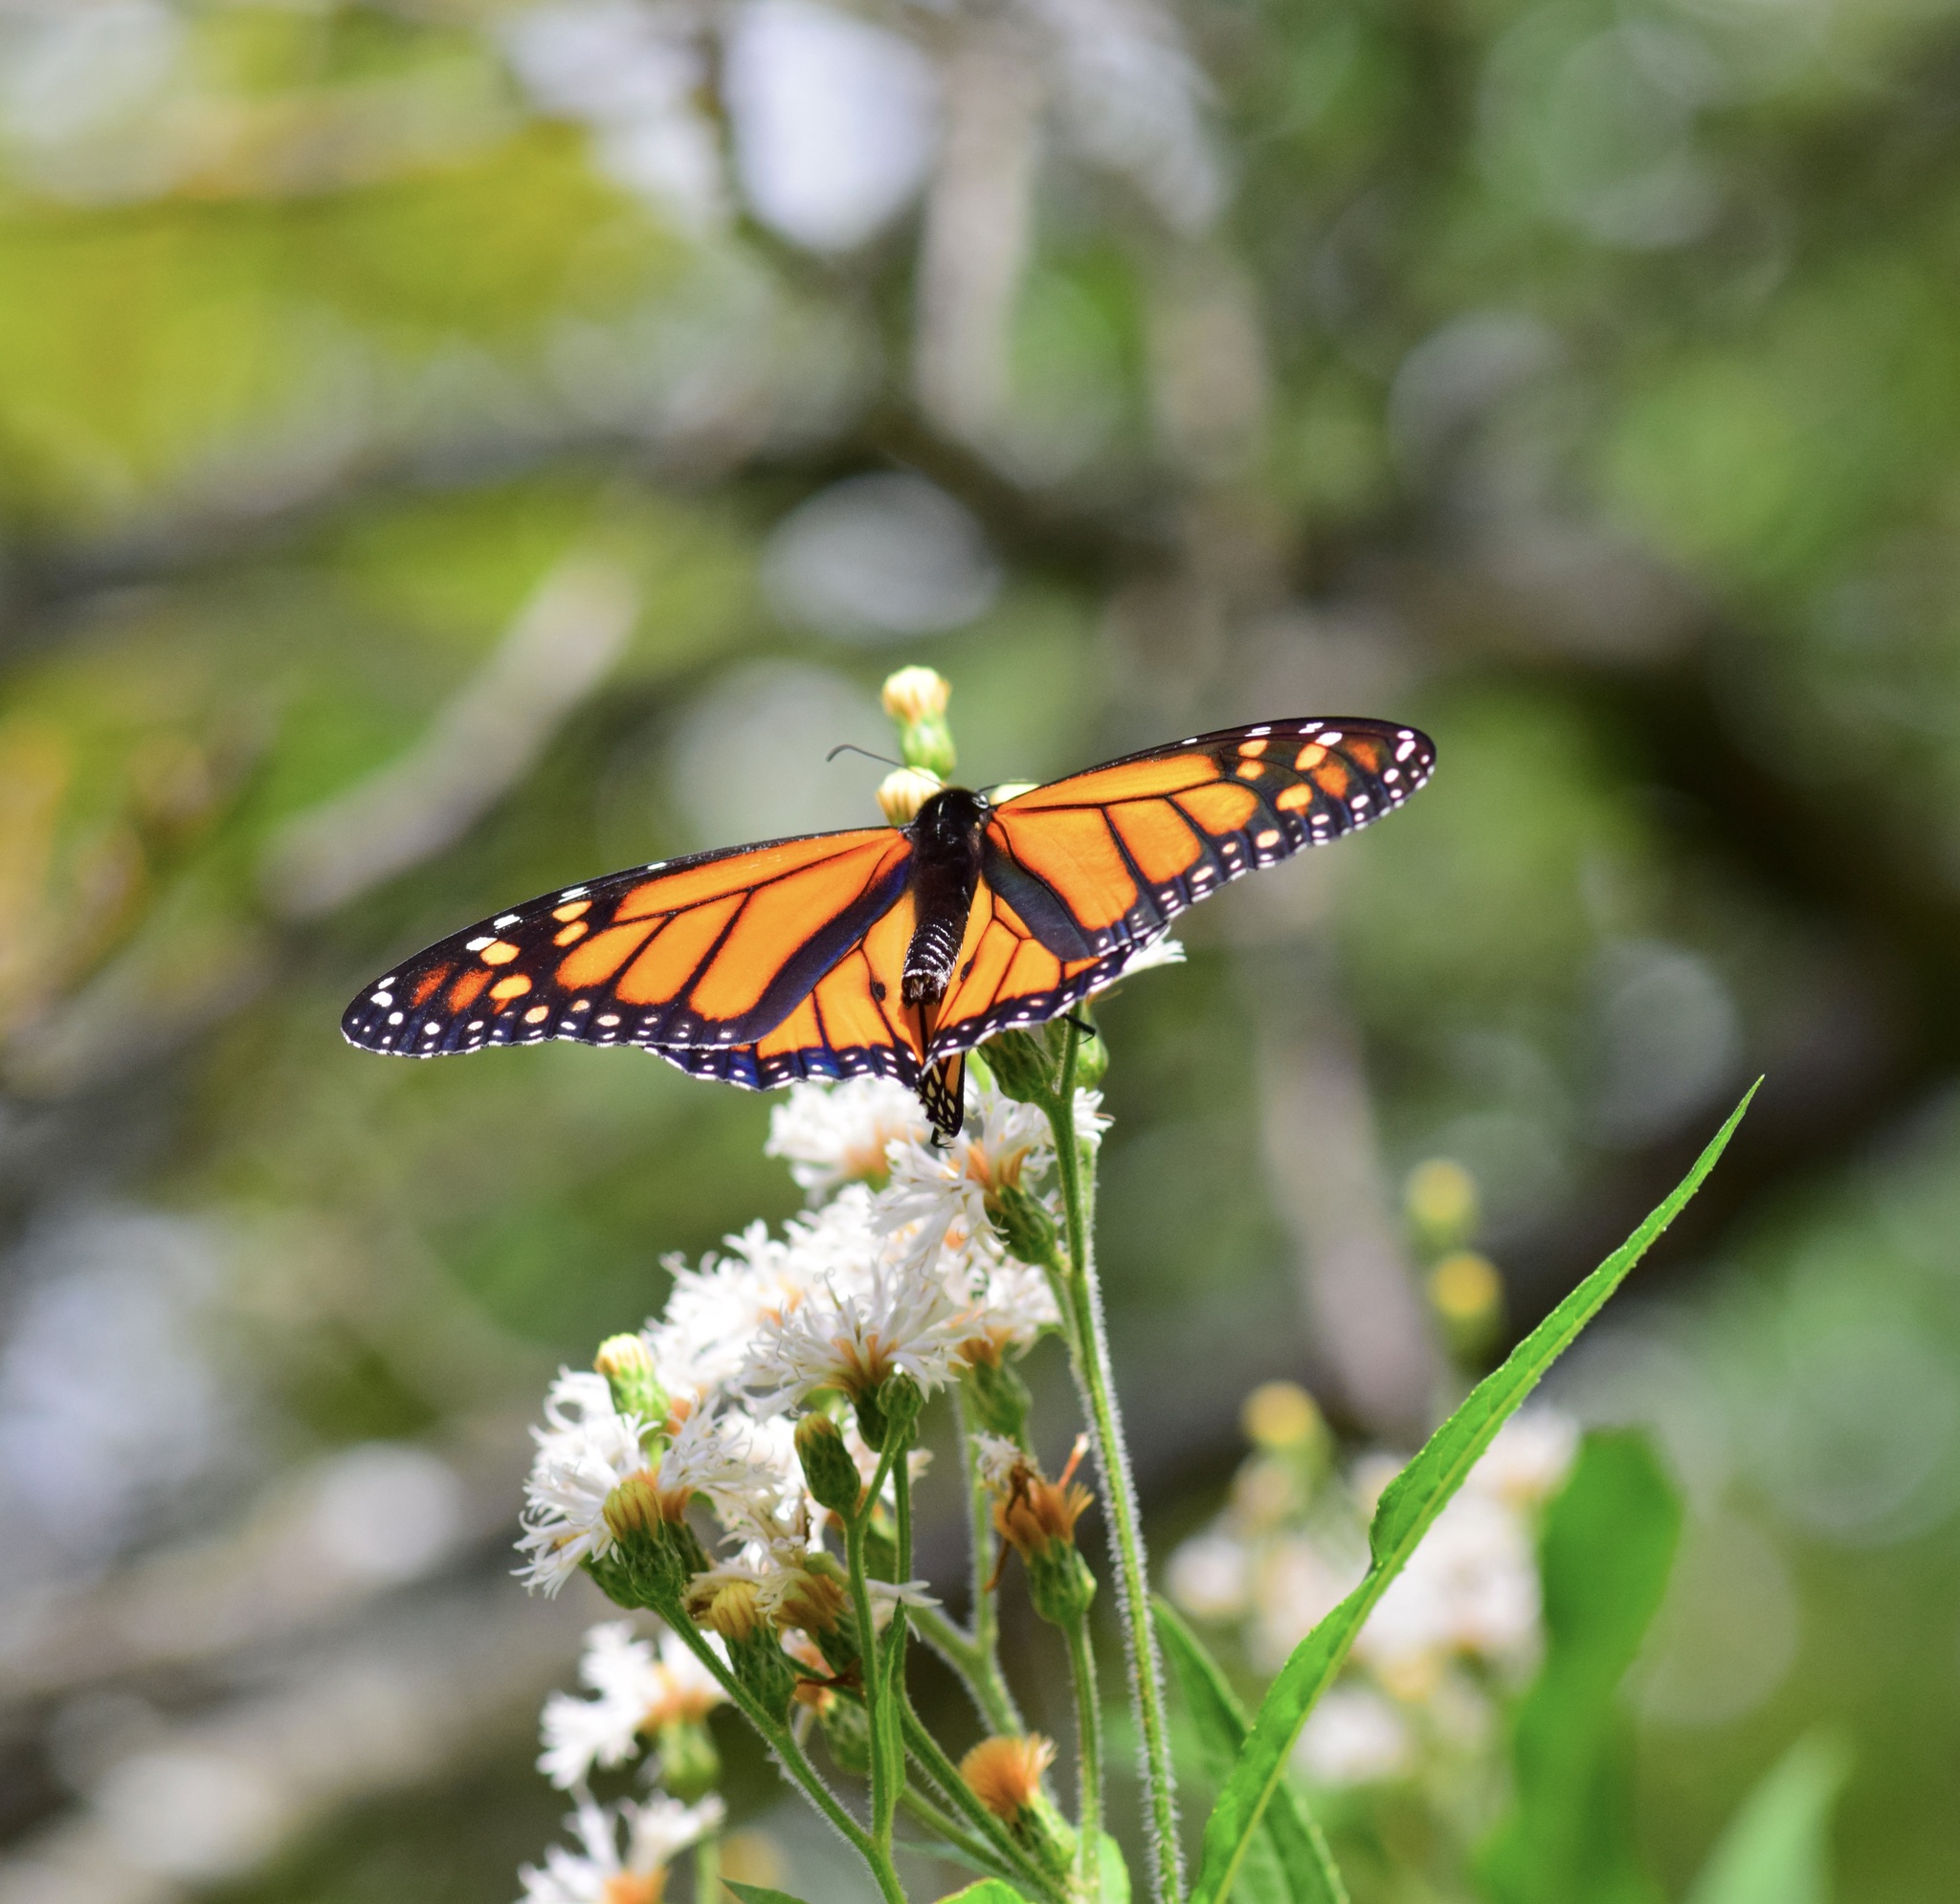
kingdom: Animalia
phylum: Arthropoda
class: Insecta
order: Lepidoptera
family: Nymphalidae
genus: Danaus
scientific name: Danaus plexippus
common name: Monarch
